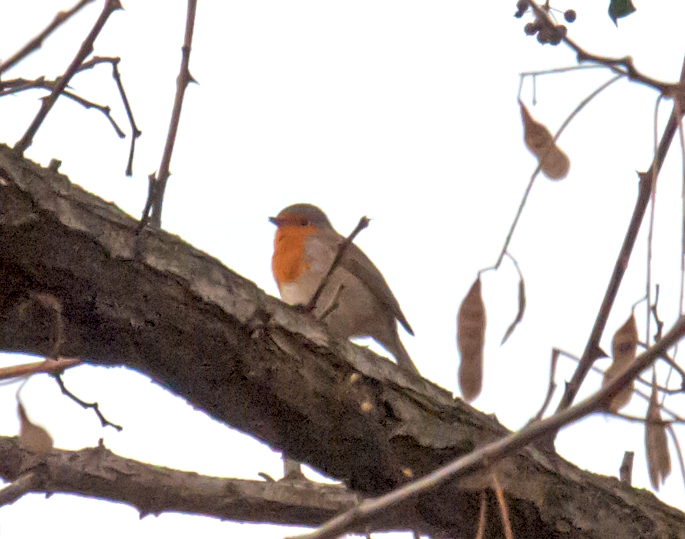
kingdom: Animalia
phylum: Chordata
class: Aves
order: Passeriformes
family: Muscicapidae
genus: Erithacus
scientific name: Erithacus rubecula
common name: European robin
